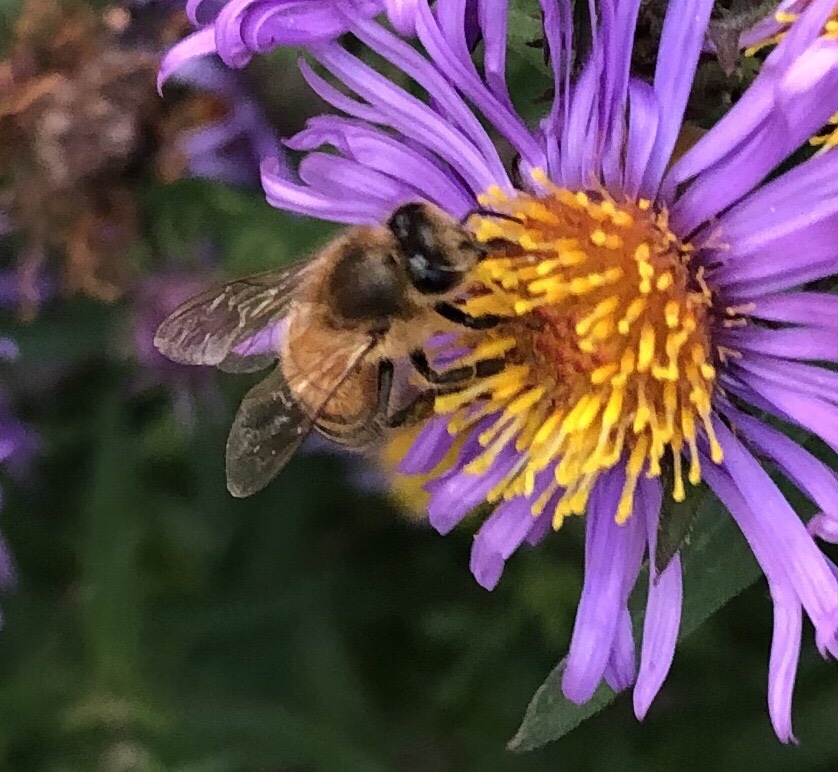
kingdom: Animalia
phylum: Arthropoda
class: Insecta
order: Hymenoptera
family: Apidae
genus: Apis
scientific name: Apis mellifera
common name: Honey bee
